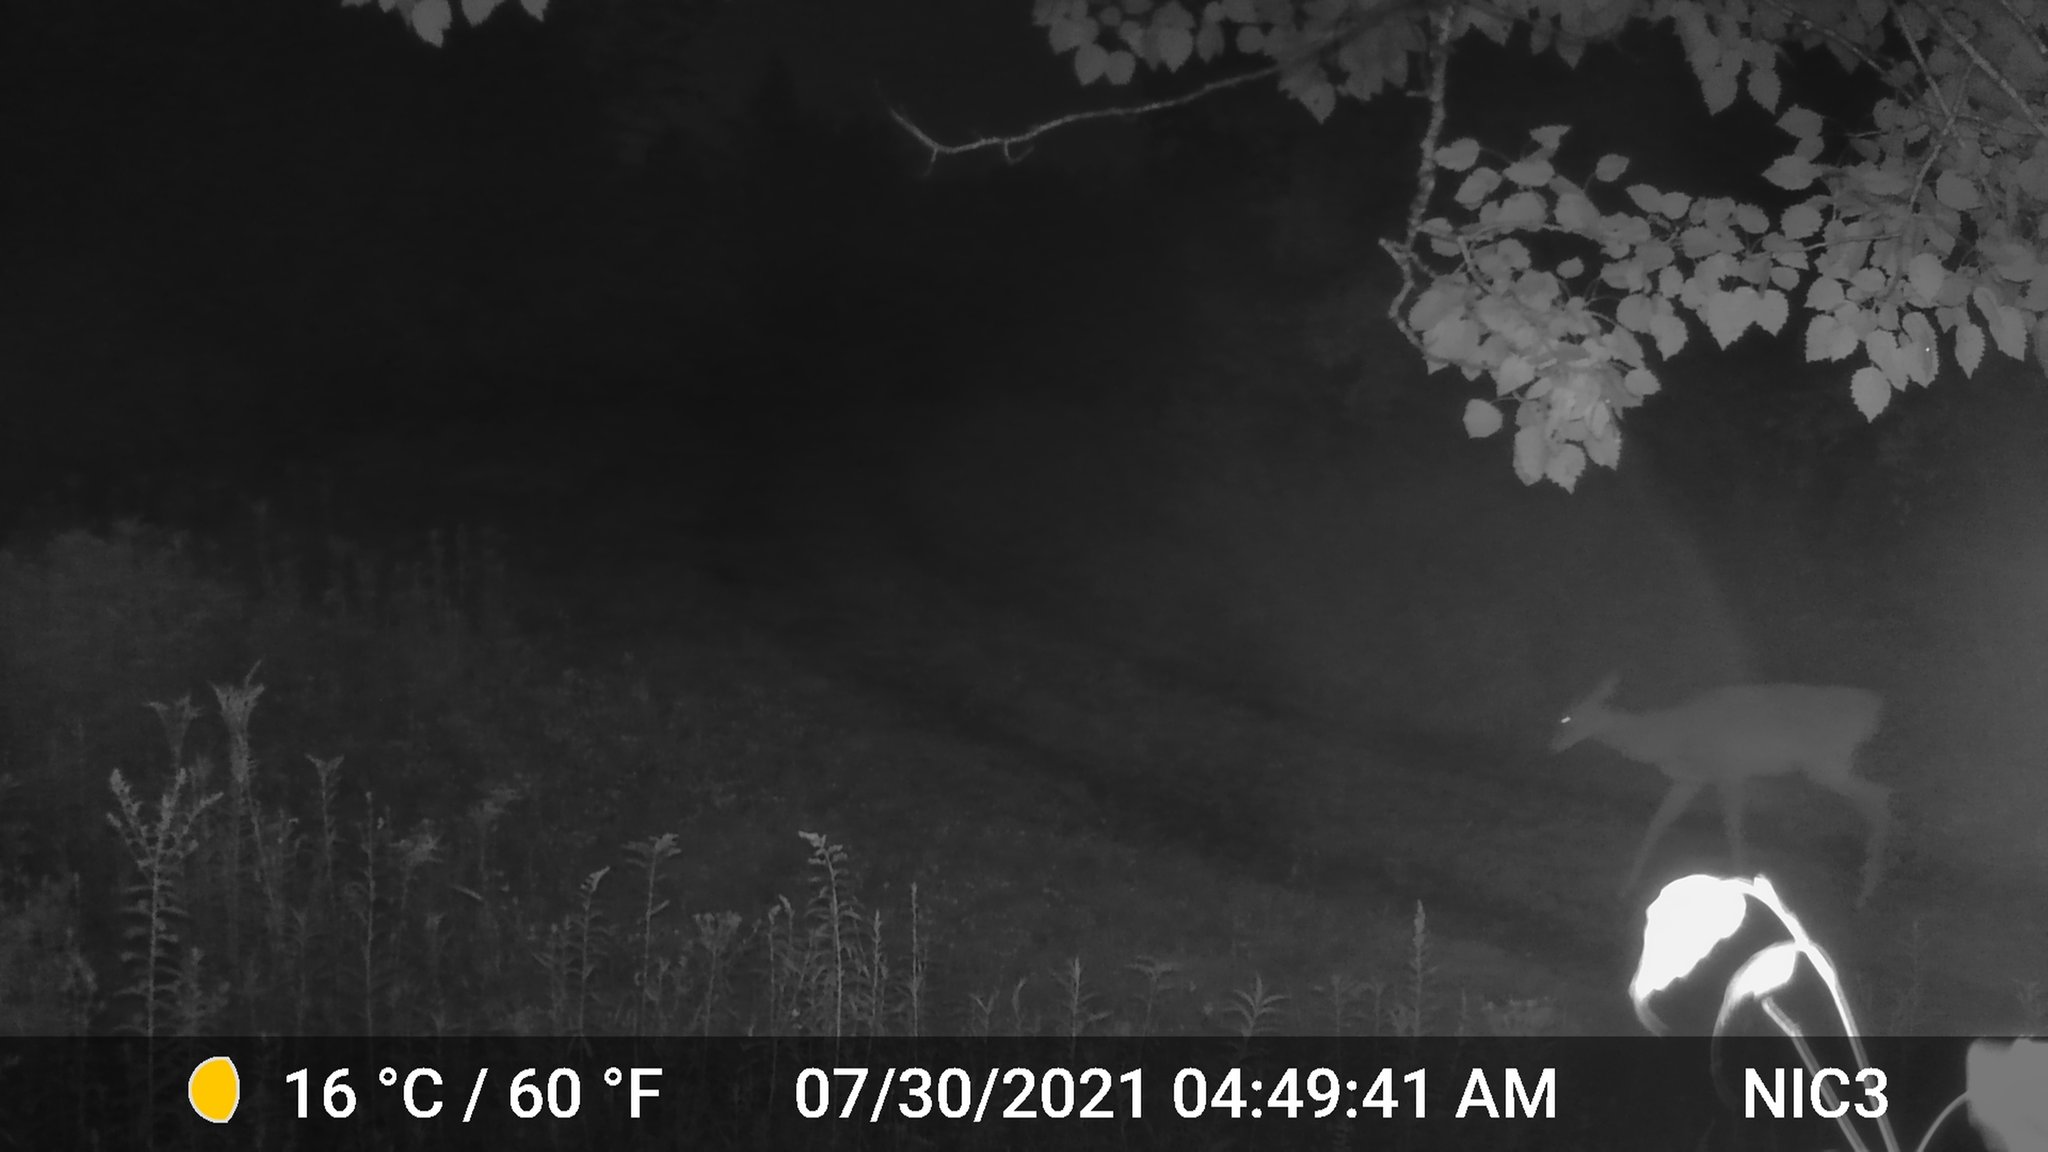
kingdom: Animalia
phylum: Chordata
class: Mammalia
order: Artiodactyla
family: Cervidae
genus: Odocoileus
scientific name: Odocoileus virginianus
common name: White-tailed deer
